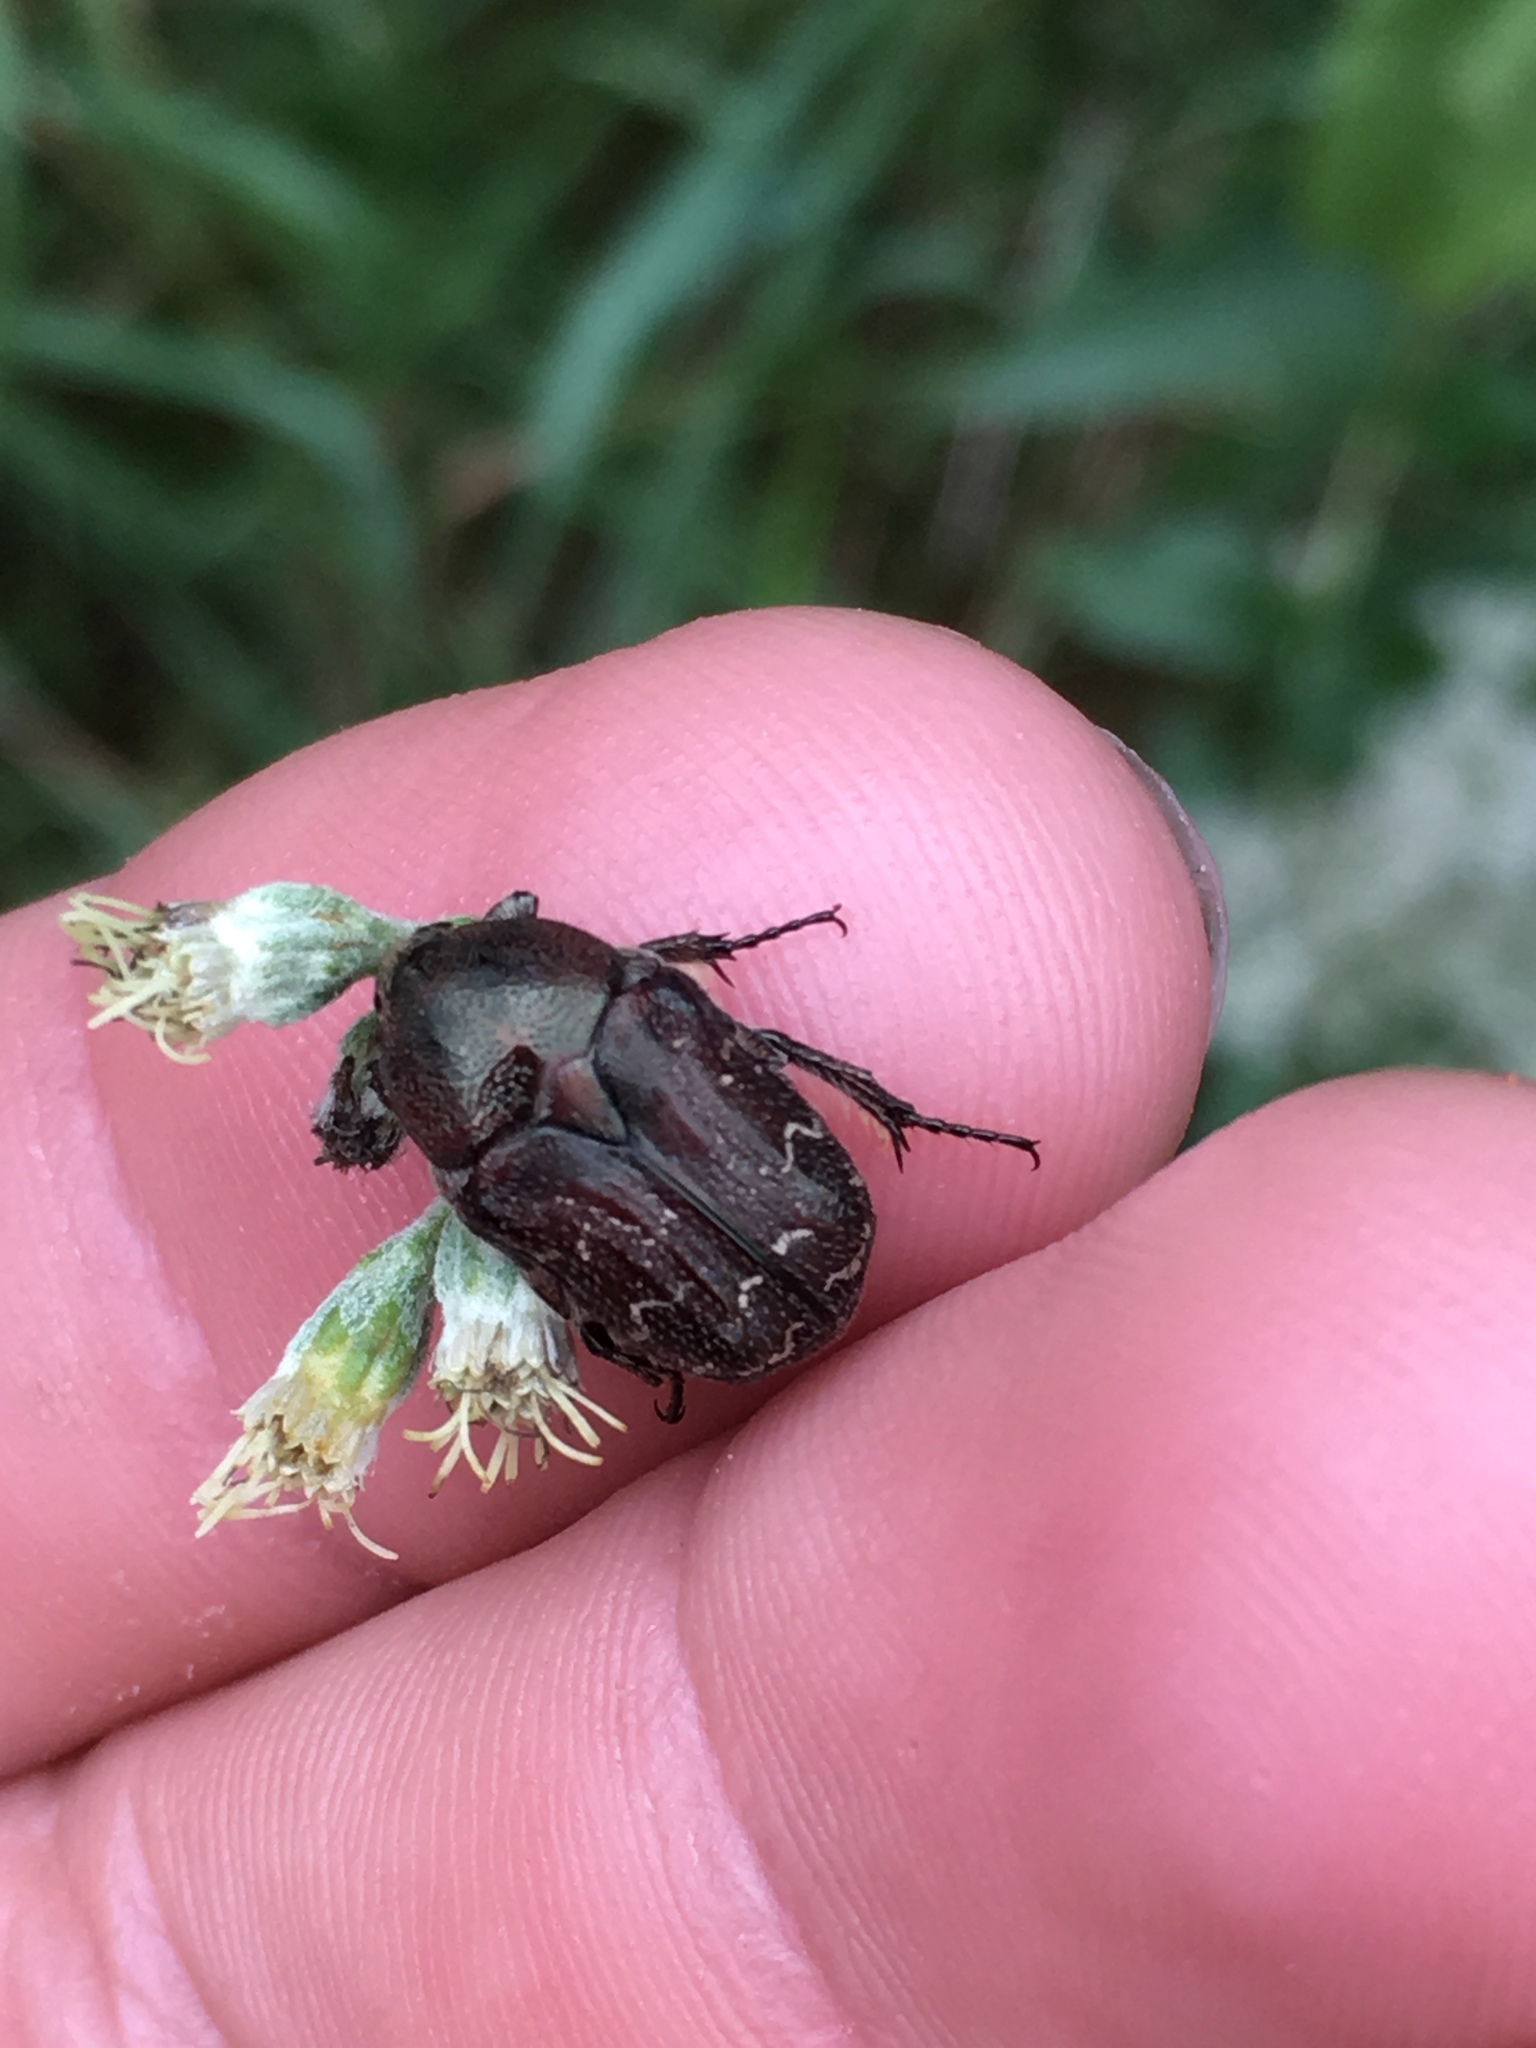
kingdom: Animalia
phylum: Arthropoda
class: Insecta
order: Coleoptera
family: Scarabaeidae
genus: Euphoria
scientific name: Euphoria sepulcralis
